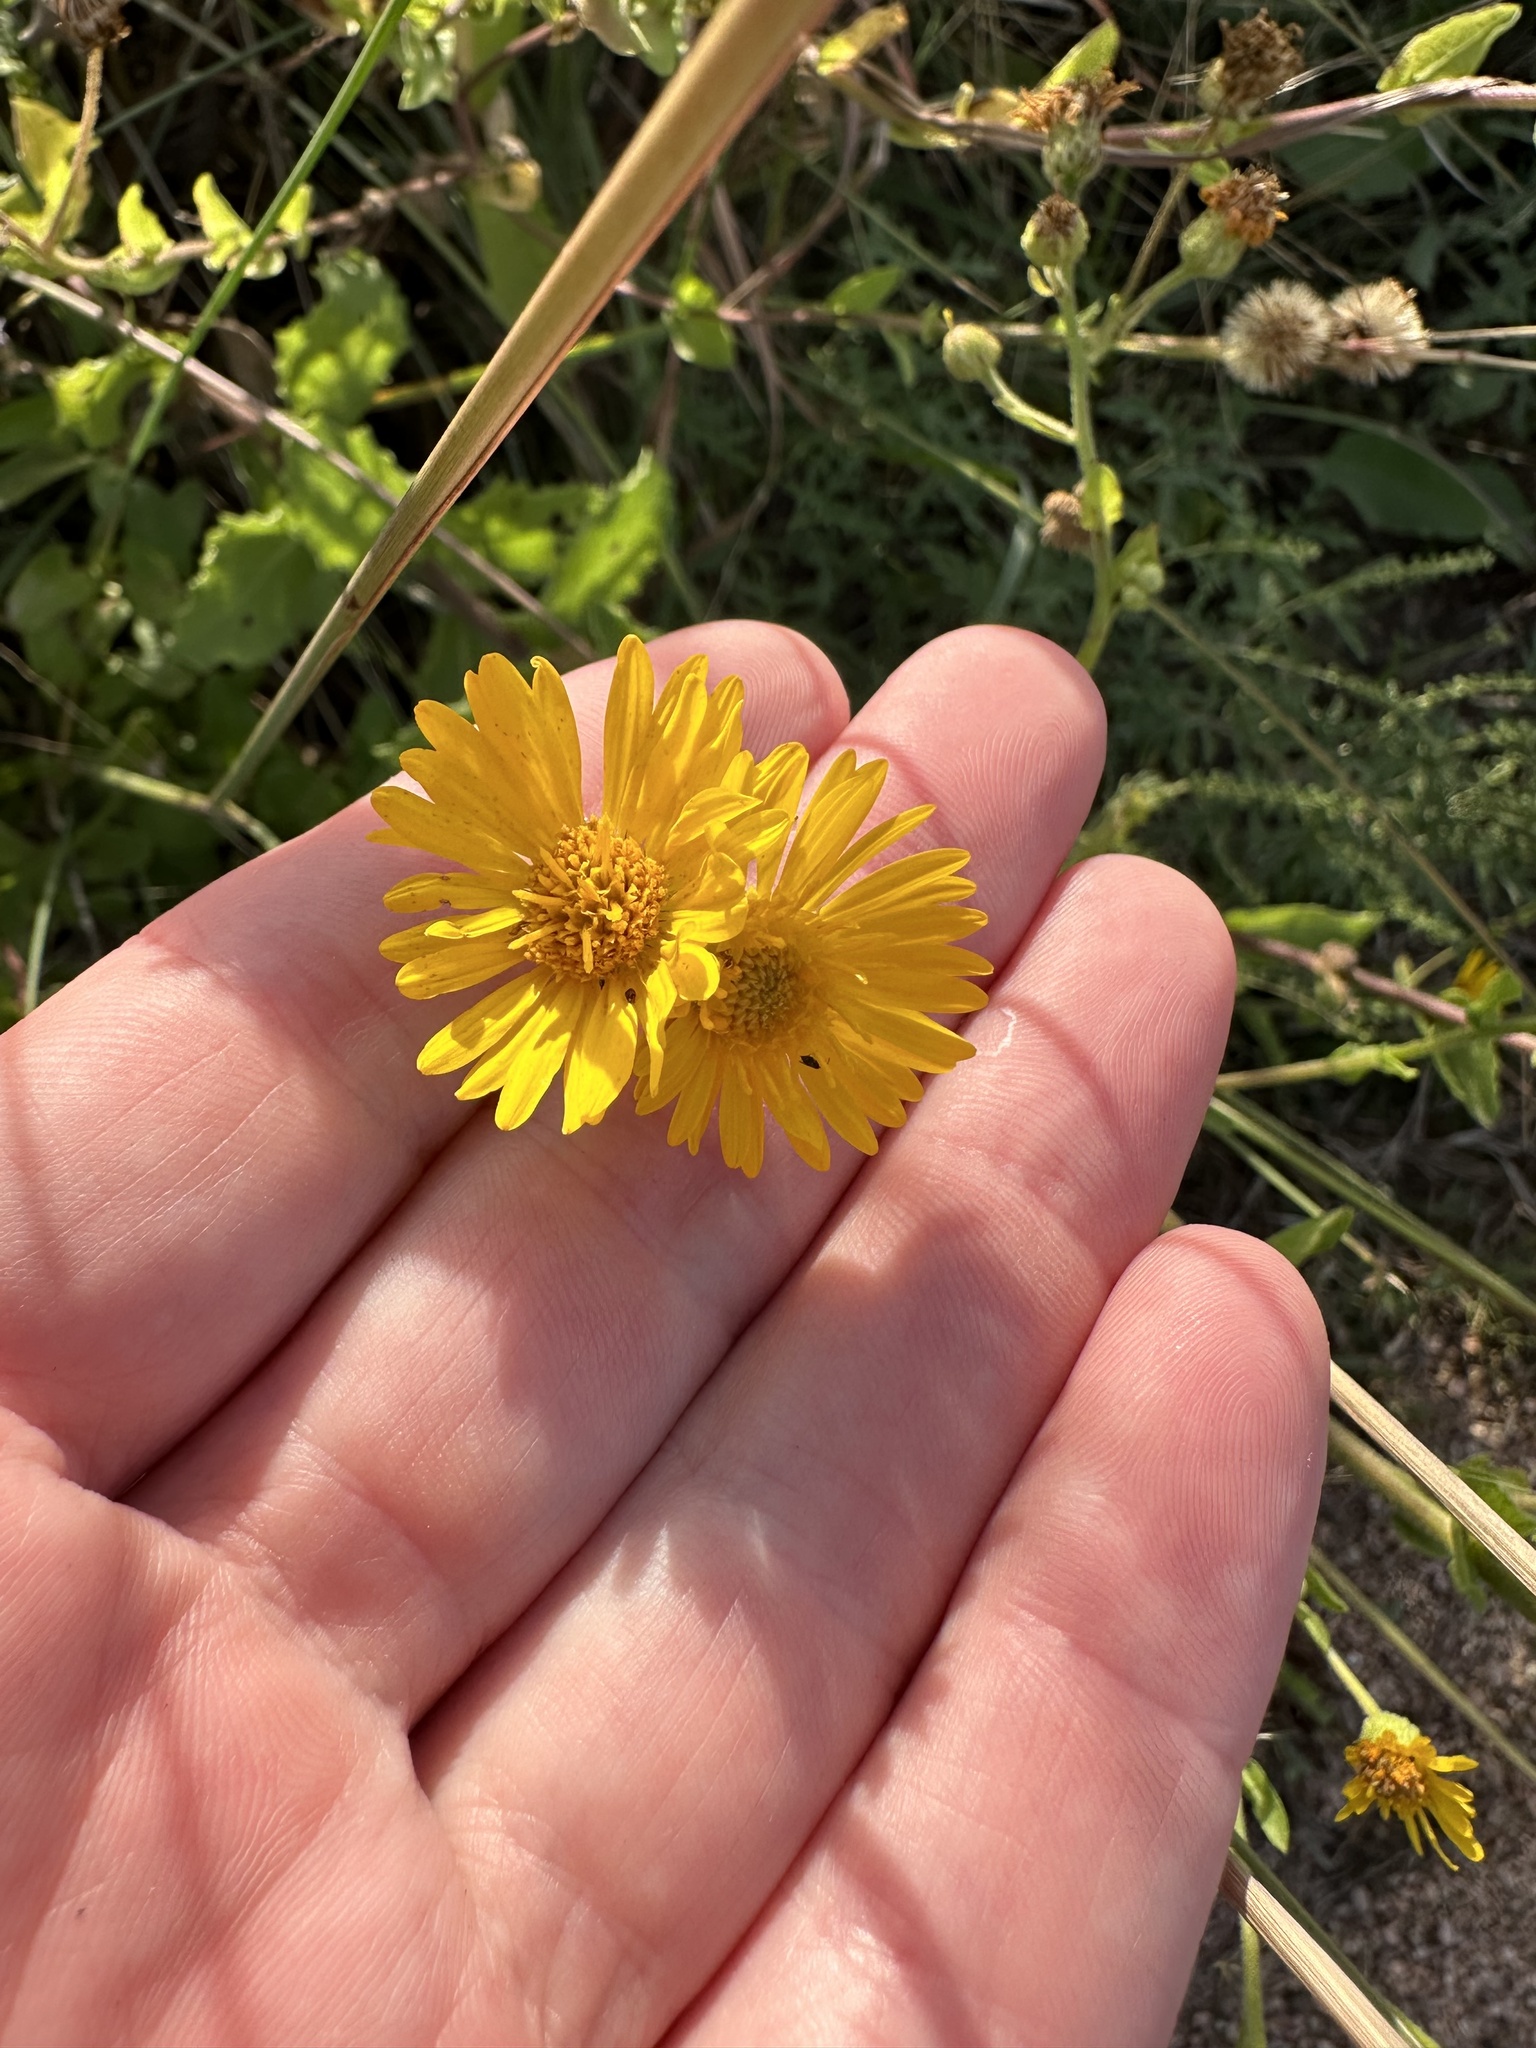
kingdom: Plantae
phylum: Tracheophyta
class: Magnoliopsida
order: Asterales
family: Asteraceae
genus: Heterotheca
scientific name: Heterotheca subaxillaris
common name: Camphorweed
